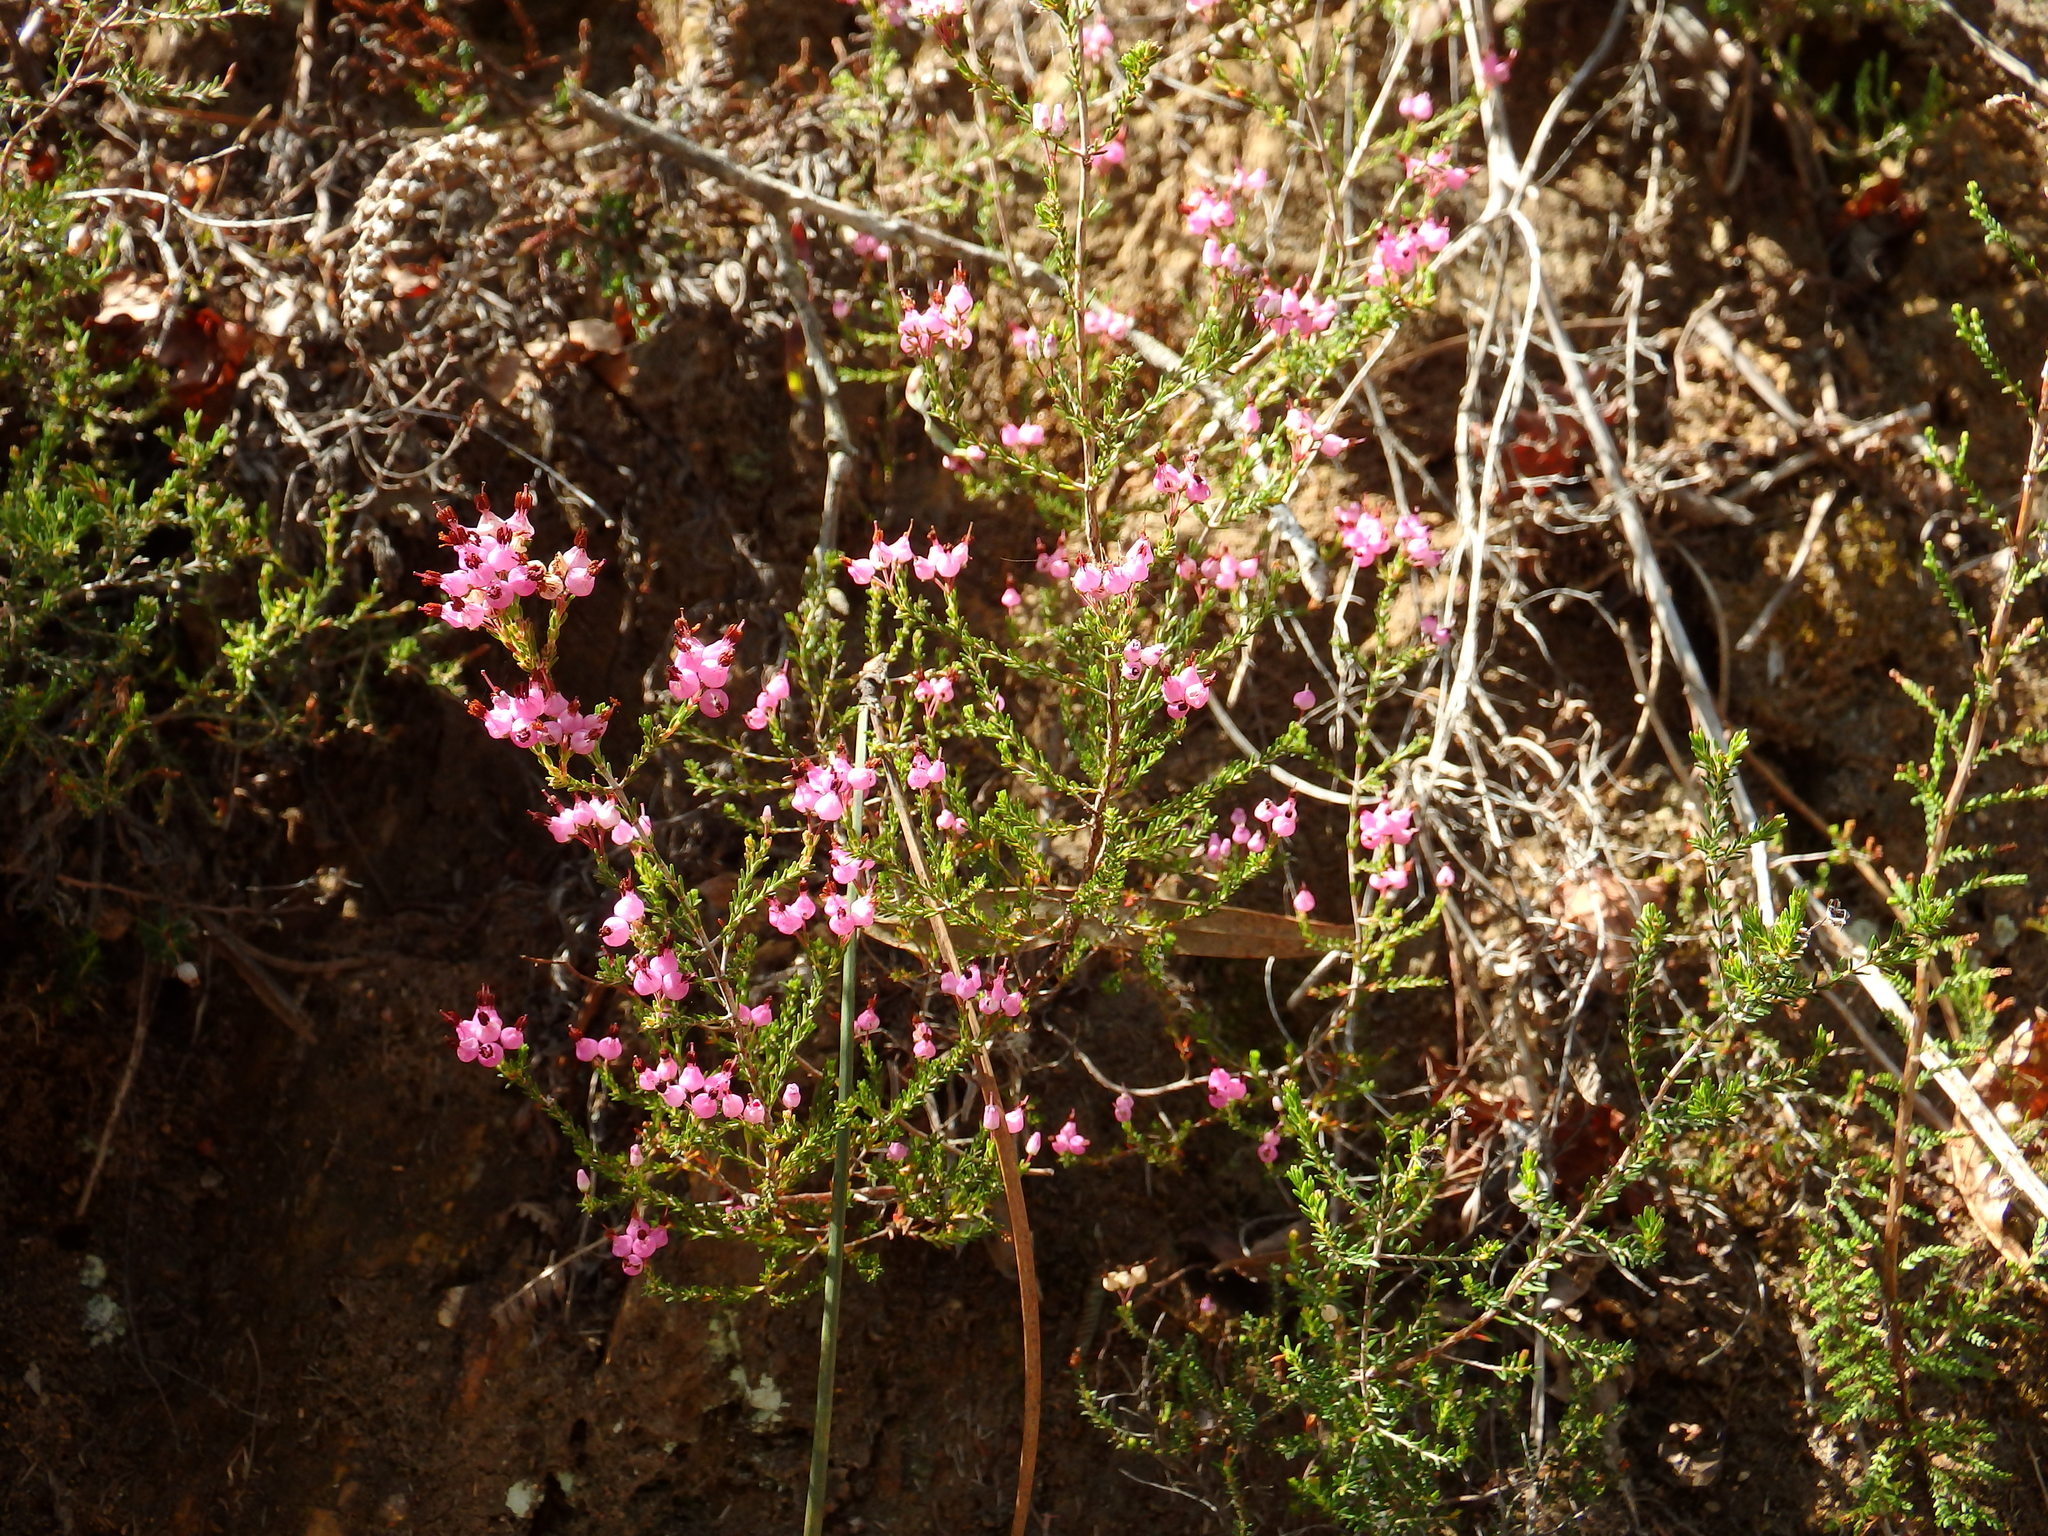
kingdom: Plantae
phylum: Tracheophyta
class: Magnoliopsida
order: Ericales
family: Ericaceae
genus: Erica
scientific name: Erica umbellata
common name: Dwarf spanish heath
